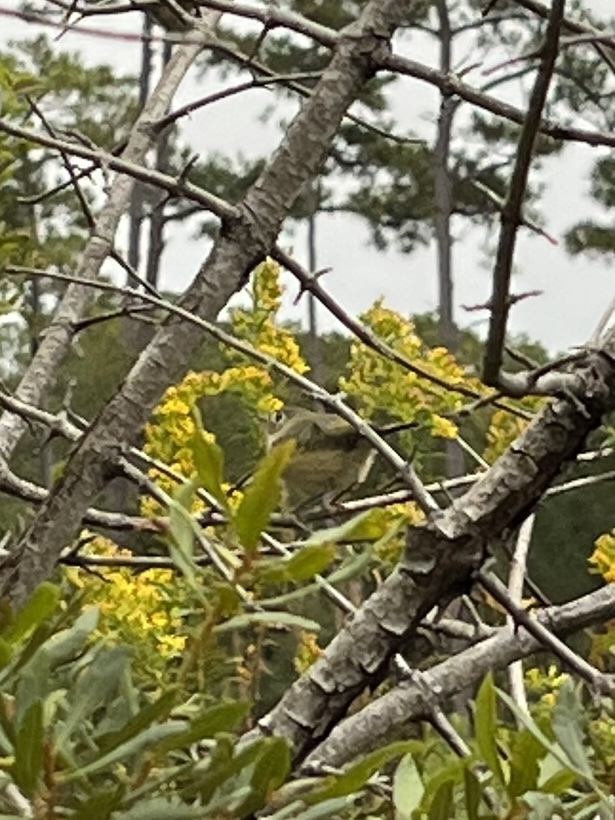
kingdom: Animalia
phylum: Chordata
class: Aves
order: Passeriformes
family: Regulidae
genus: Regulus
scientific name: Regulus calendula
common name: Ruby-crowned kinglet
